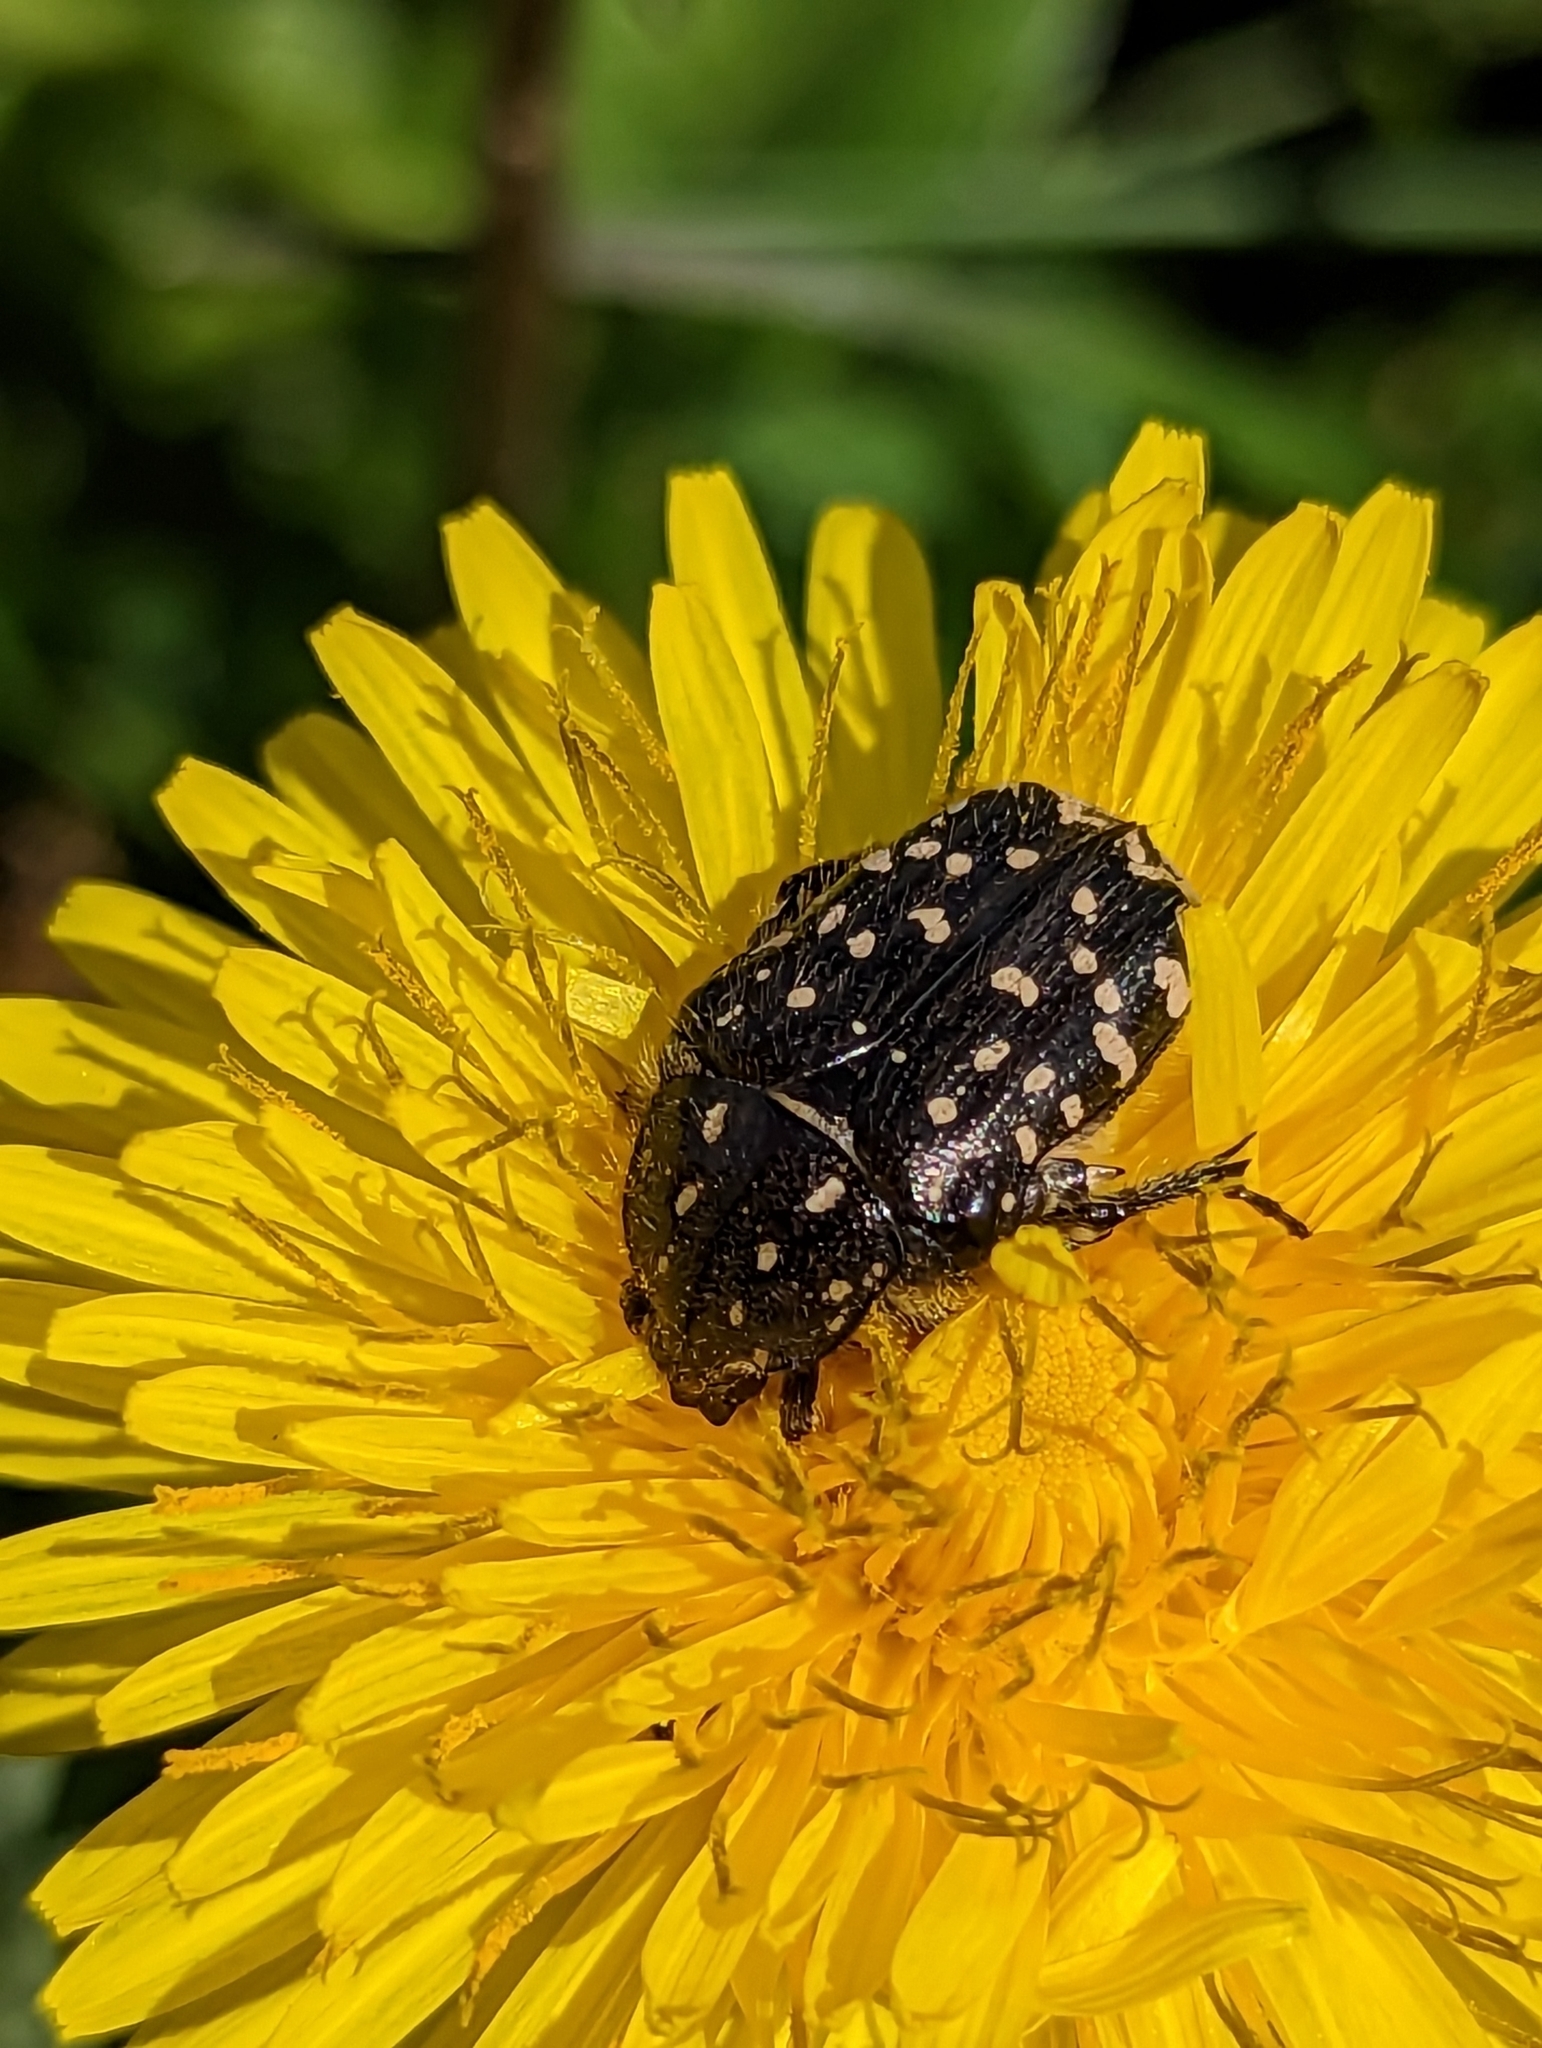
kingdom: Animalia
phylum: Arthropoda
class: Insecta
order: Coleoptera
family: Scarabaeidae
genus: Oxythyrea
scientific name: Oxythyrea funesta
